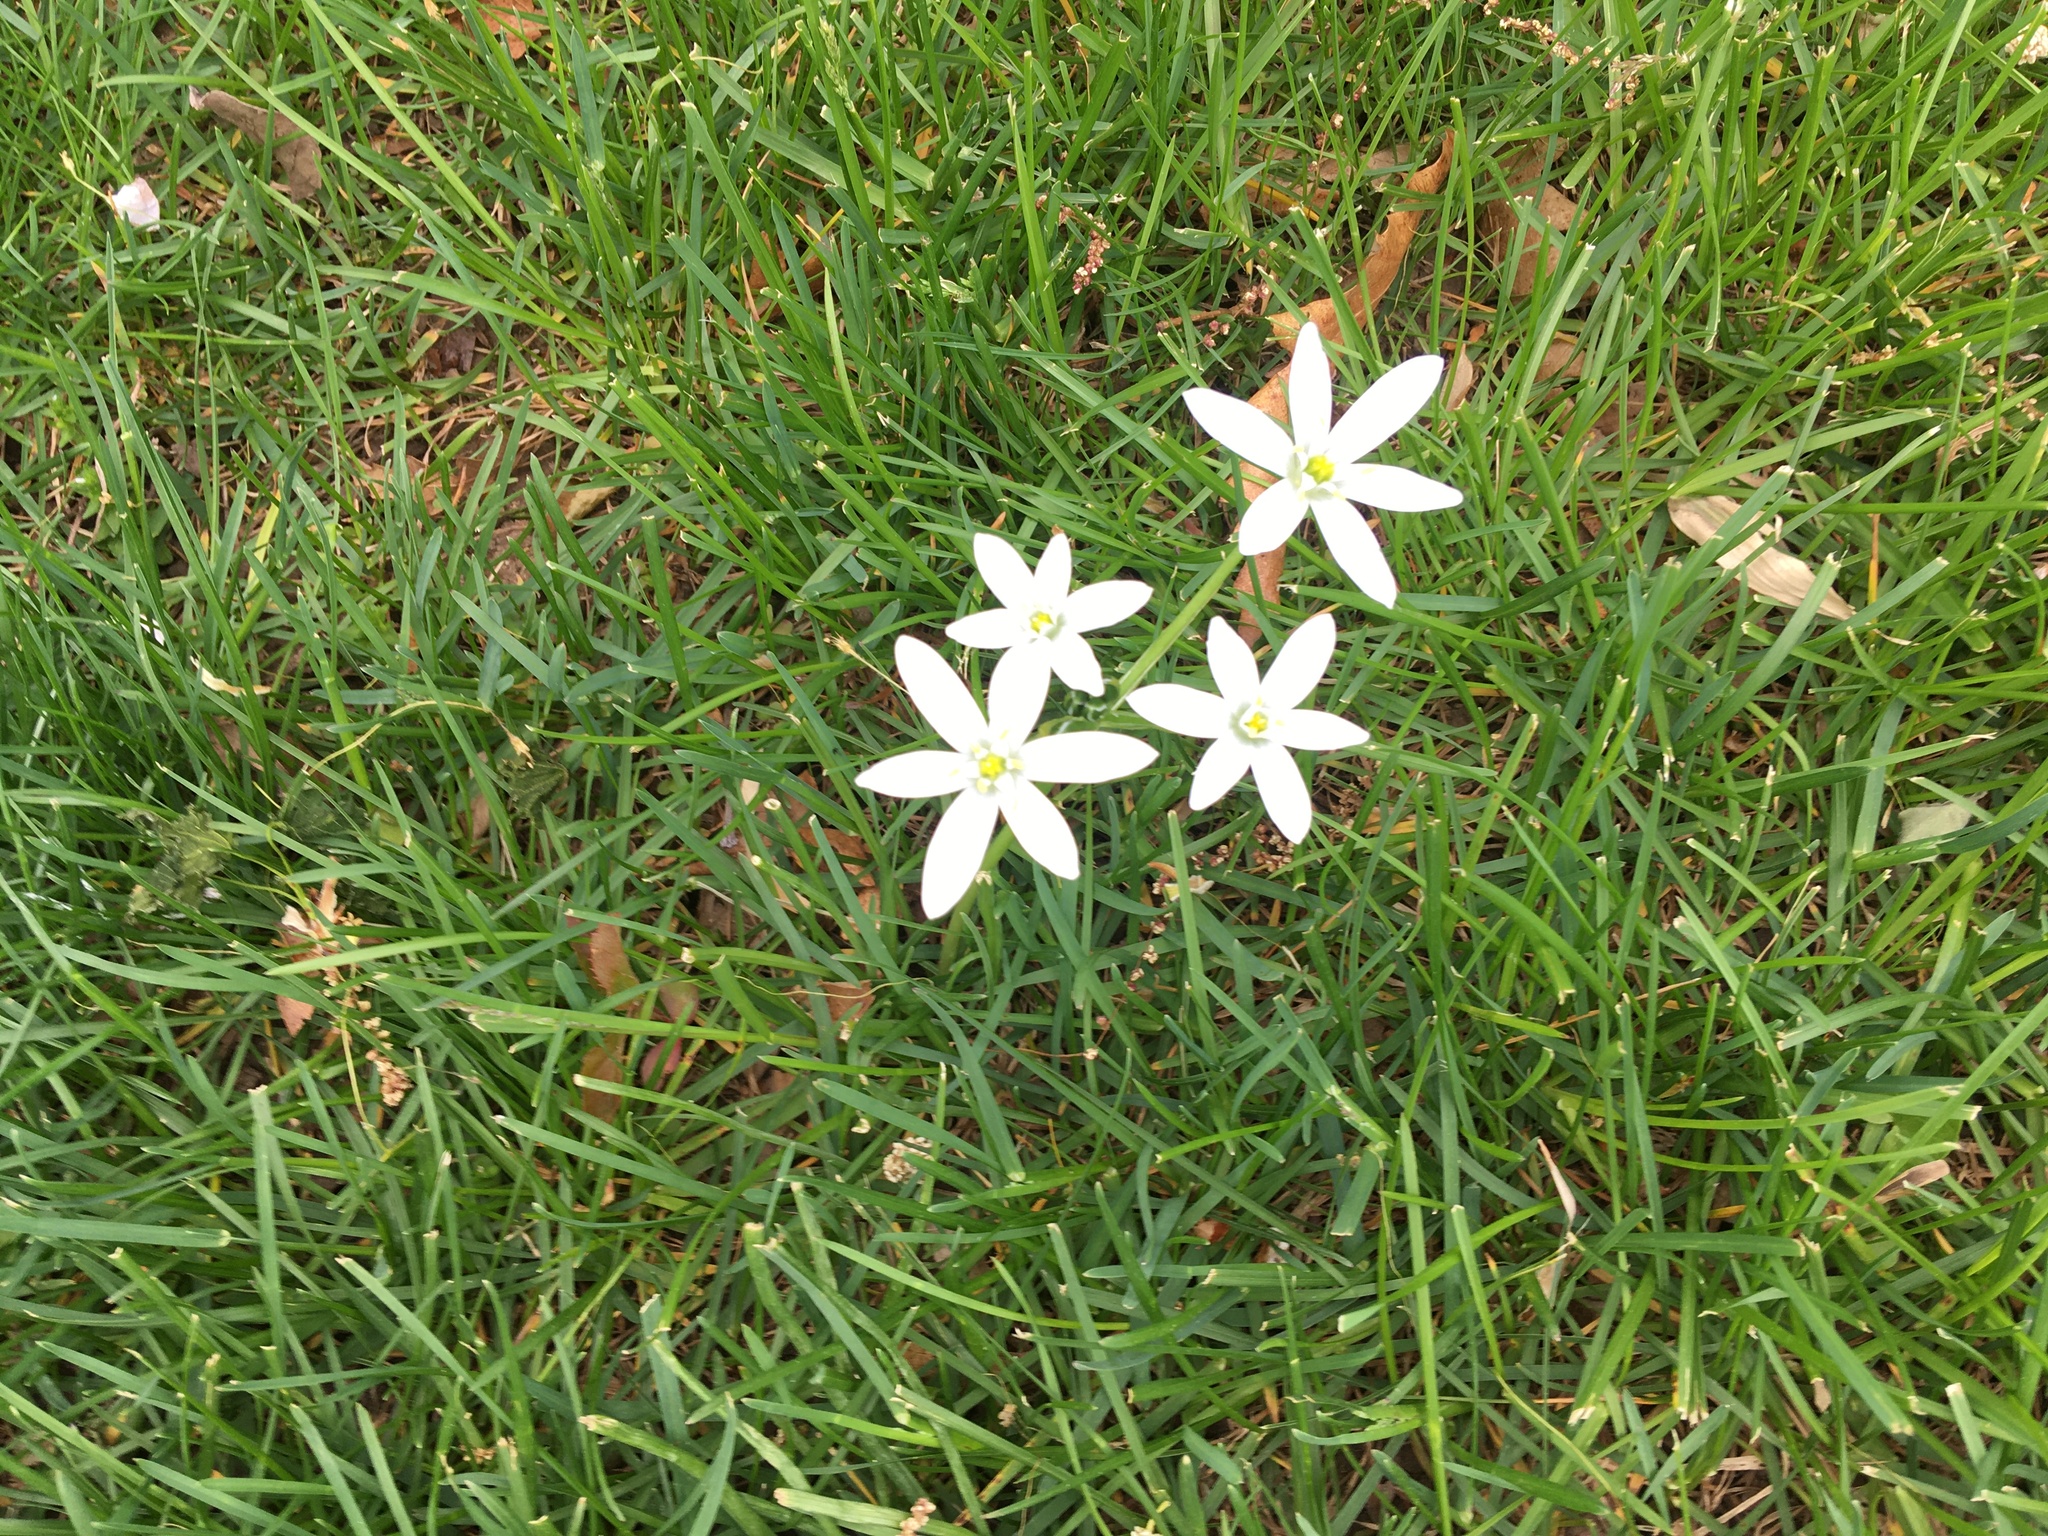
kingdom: Plantae
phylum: Tracheophyta
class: Liliopsida
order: Asparagales
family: Asparagaceae
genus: Ornithogalum
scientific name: Ornithogalum umbellatum
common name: Garden star-of-bethlehem
